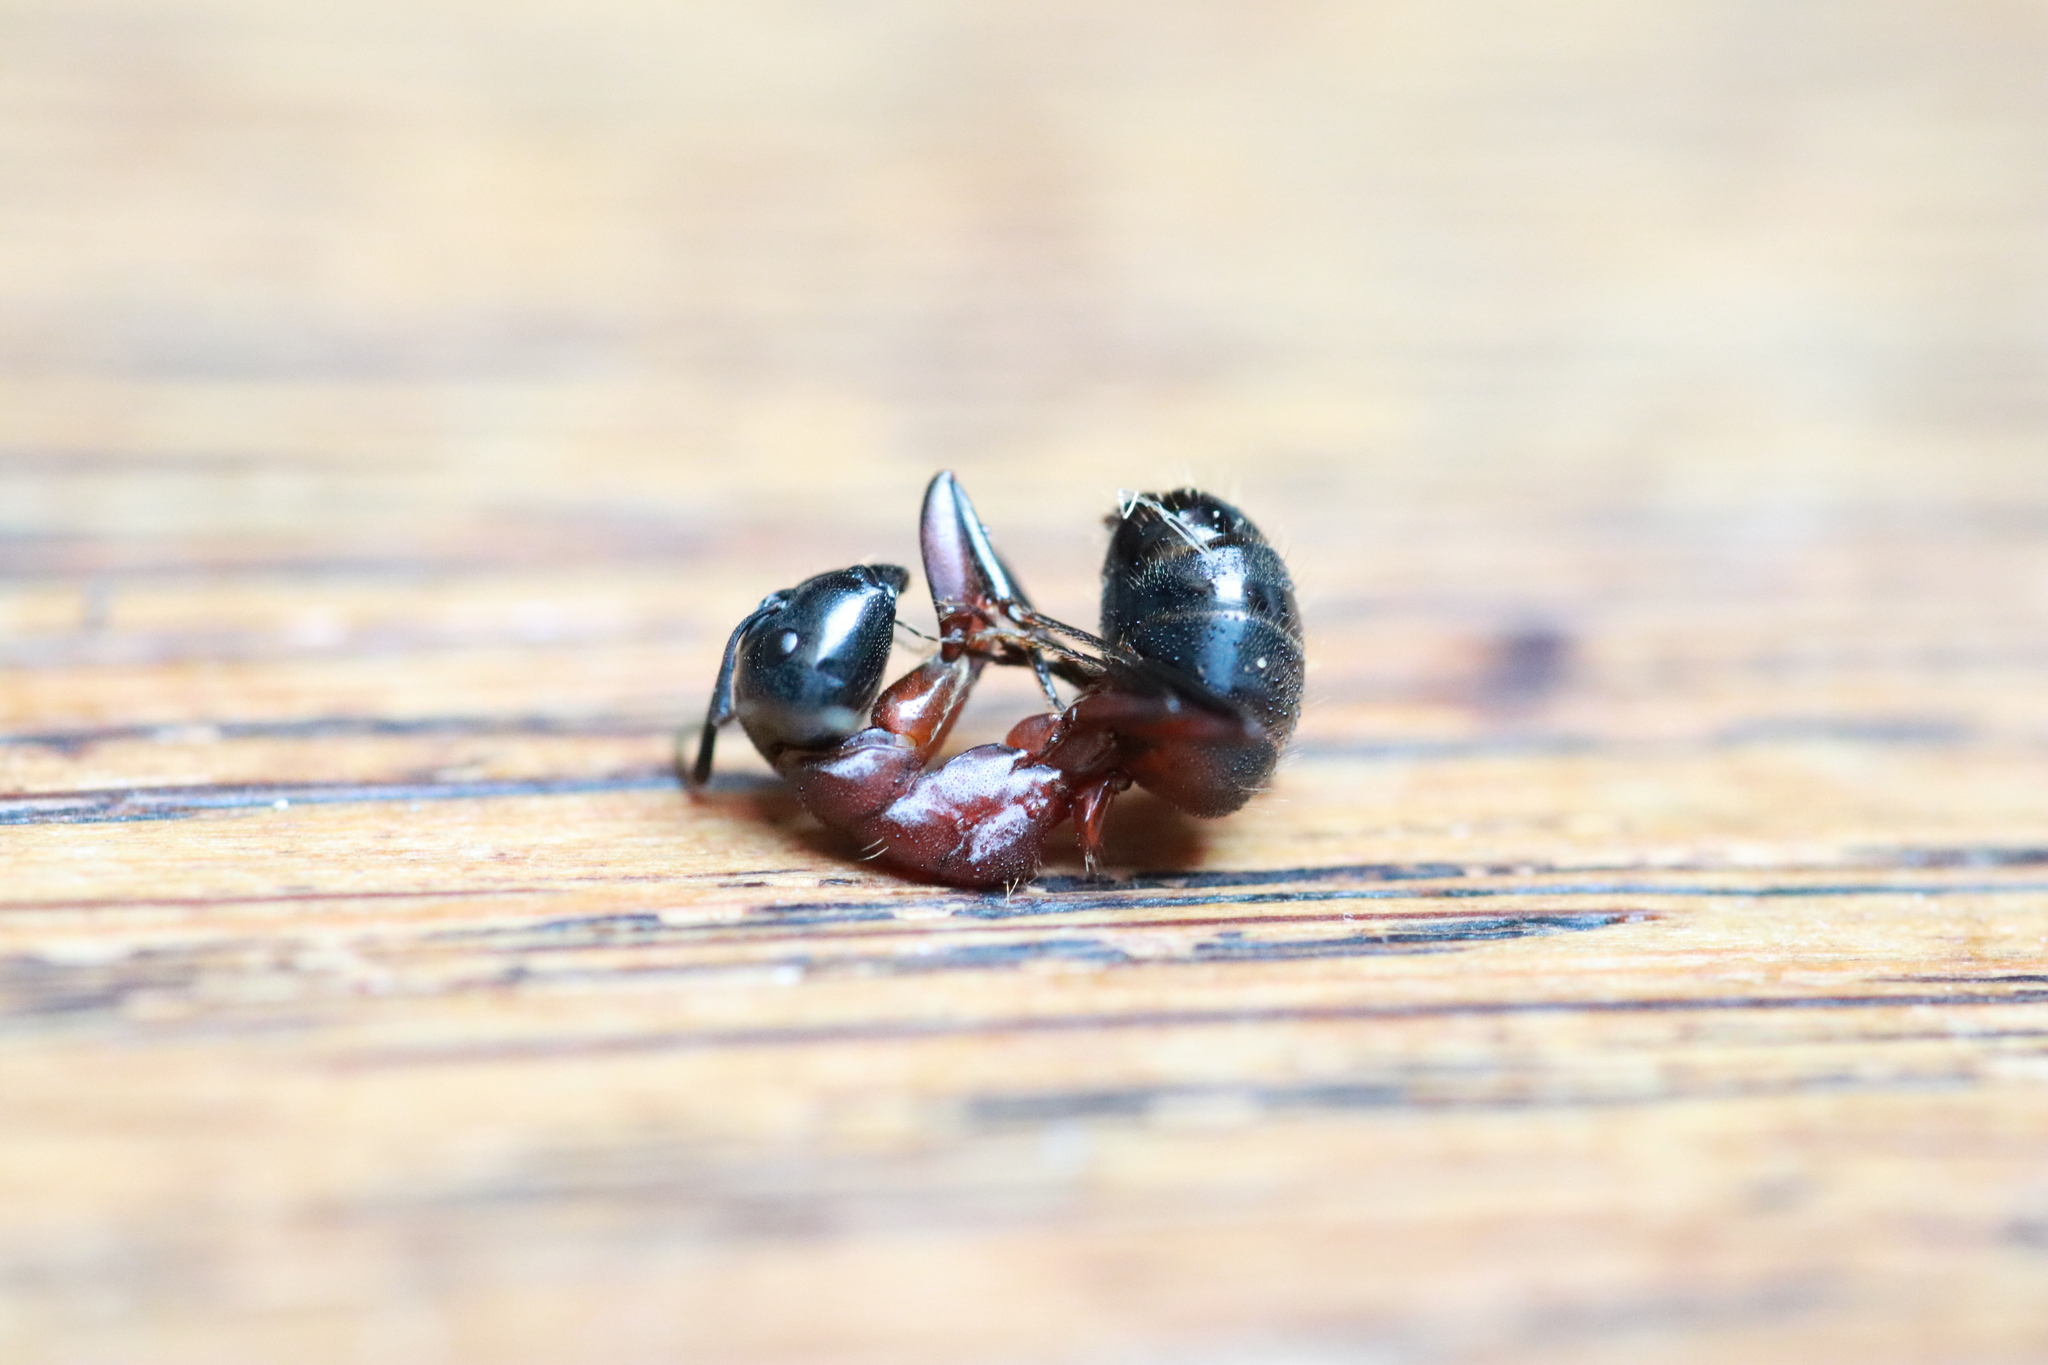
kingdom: Animalia
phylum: Arthropoda
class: Insecta
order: Hymenoptera
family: Formicidae
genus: Camponotus
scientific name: Camponotus ligniperdus
